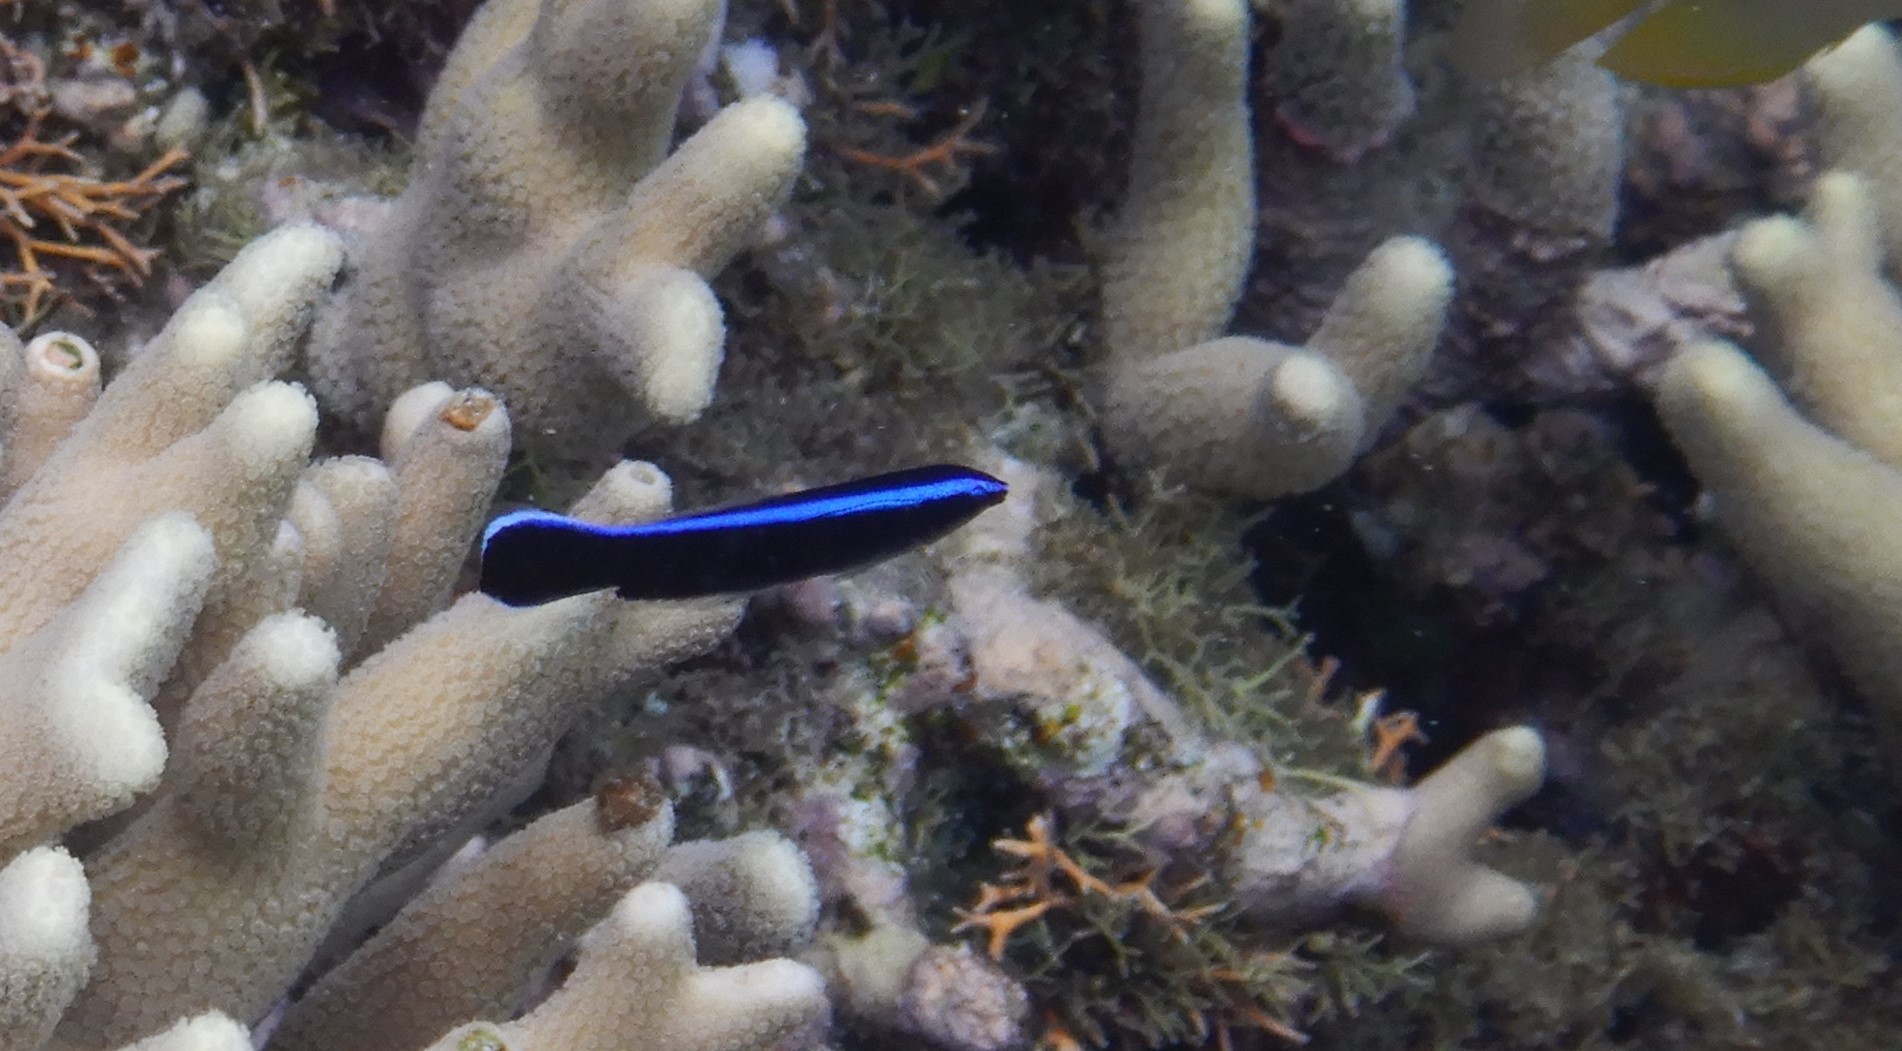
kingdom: Animalia
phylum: Chordata
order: Perciformes
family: Labridae
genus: Labroides
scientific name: Labroides dimidiatus
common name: Blue diesel wrasse
